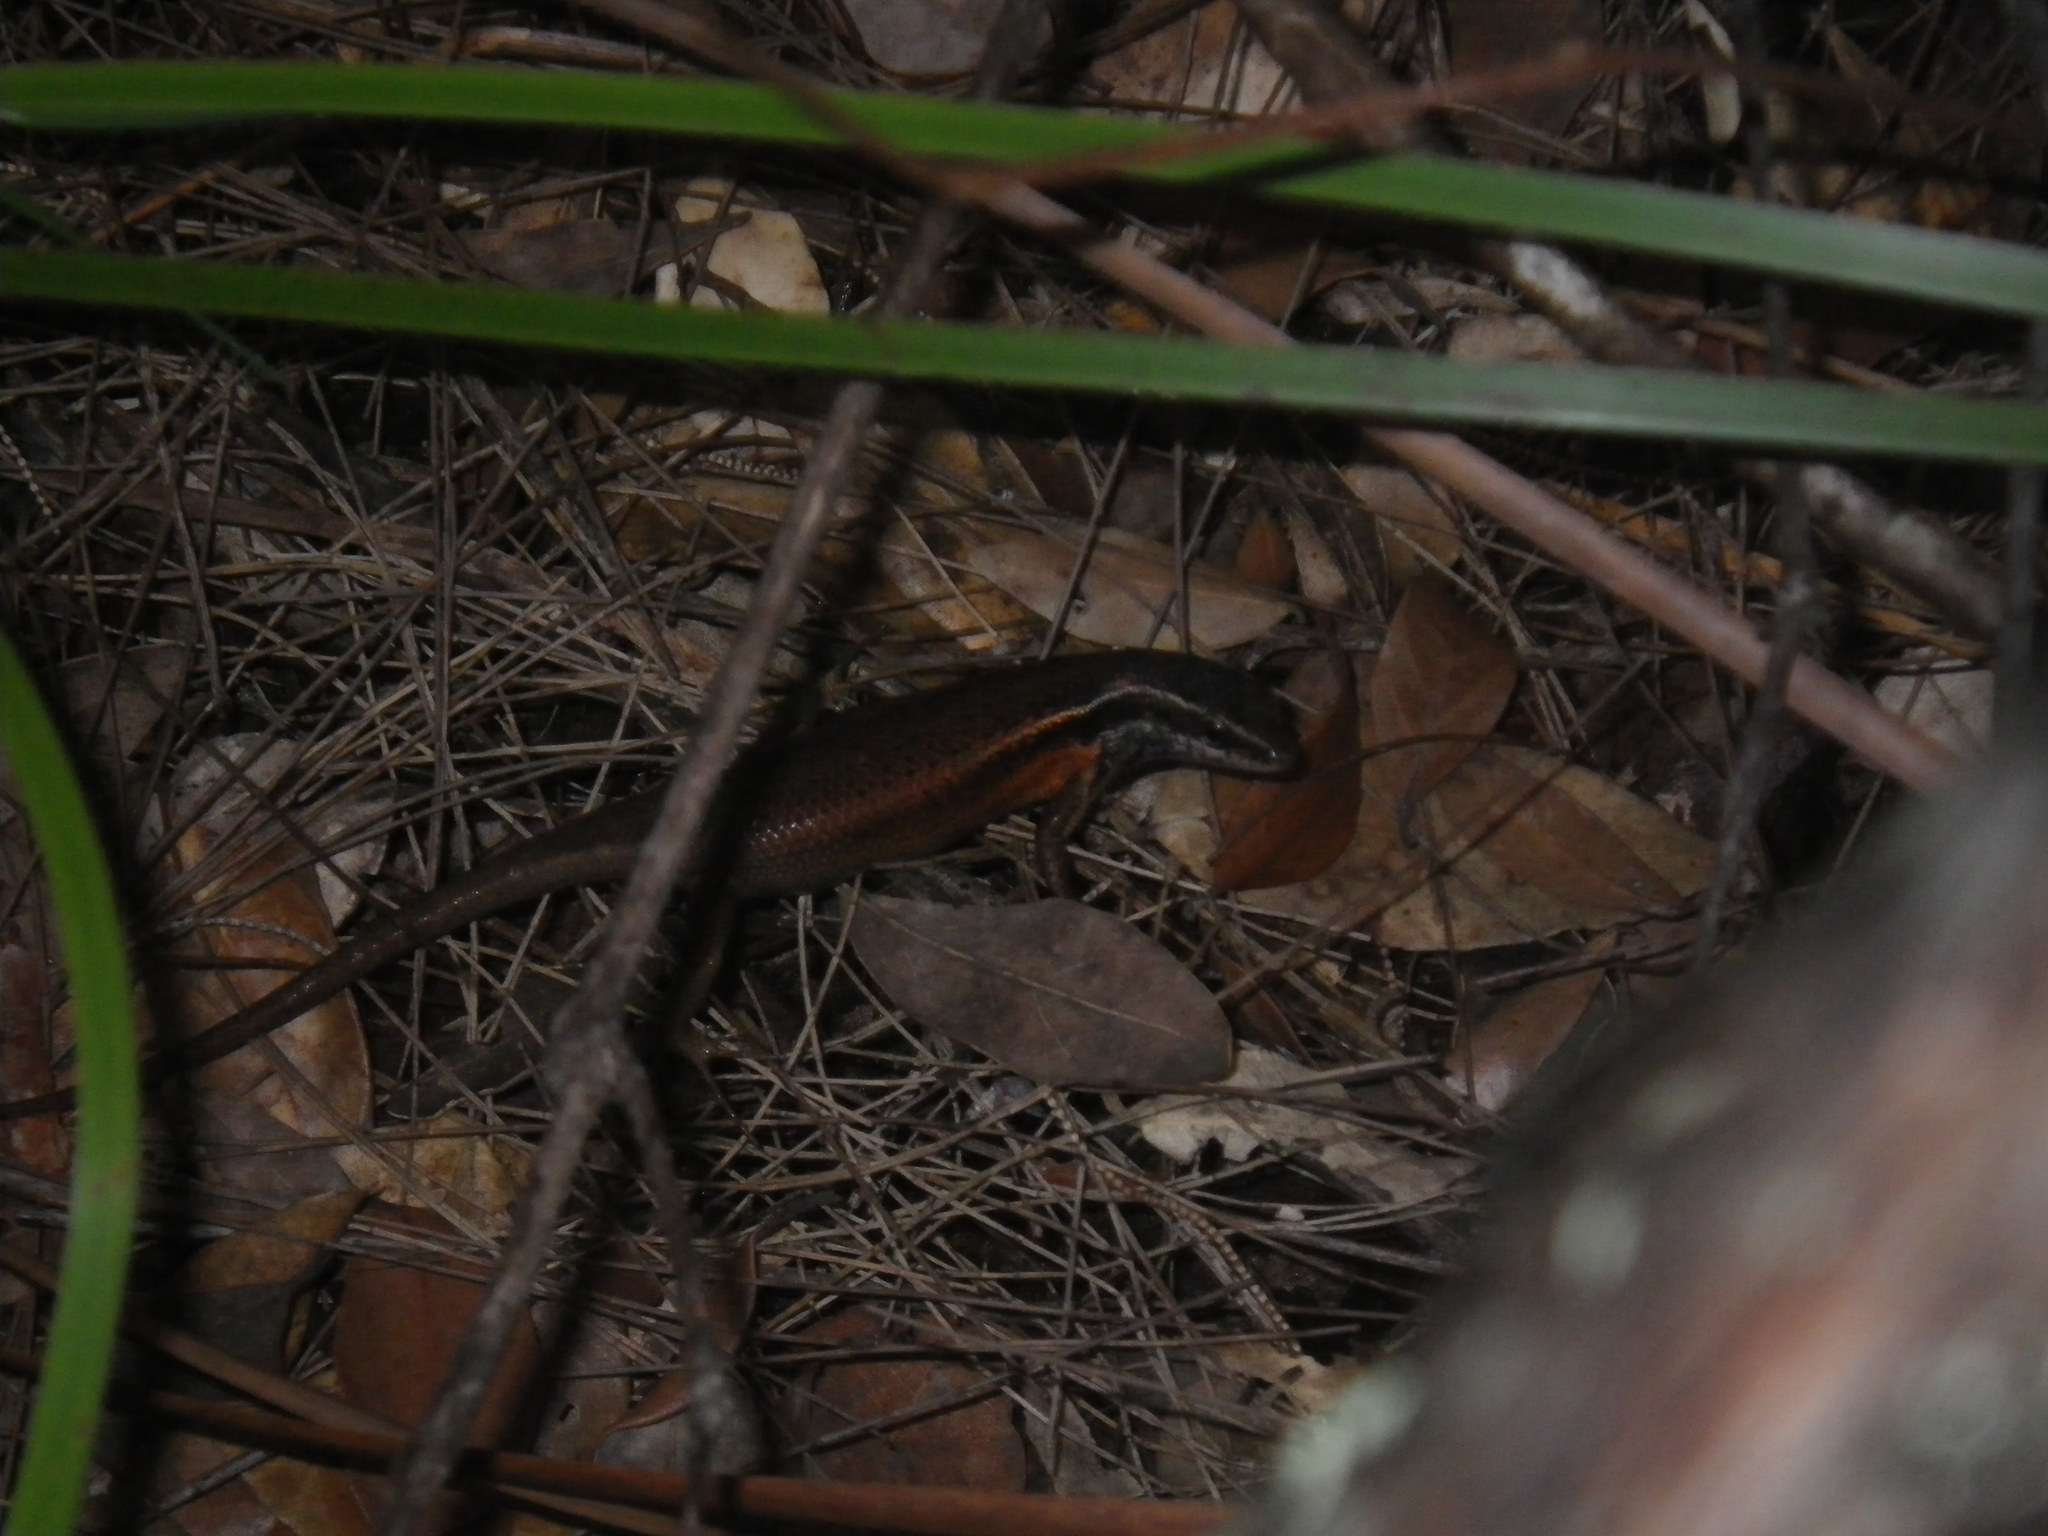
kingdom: Animalia
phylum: Chordata
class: Squamata
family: Scincidae
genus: Carlia
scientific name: Carlia rostralis
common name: Black-throated rainbow-skink
